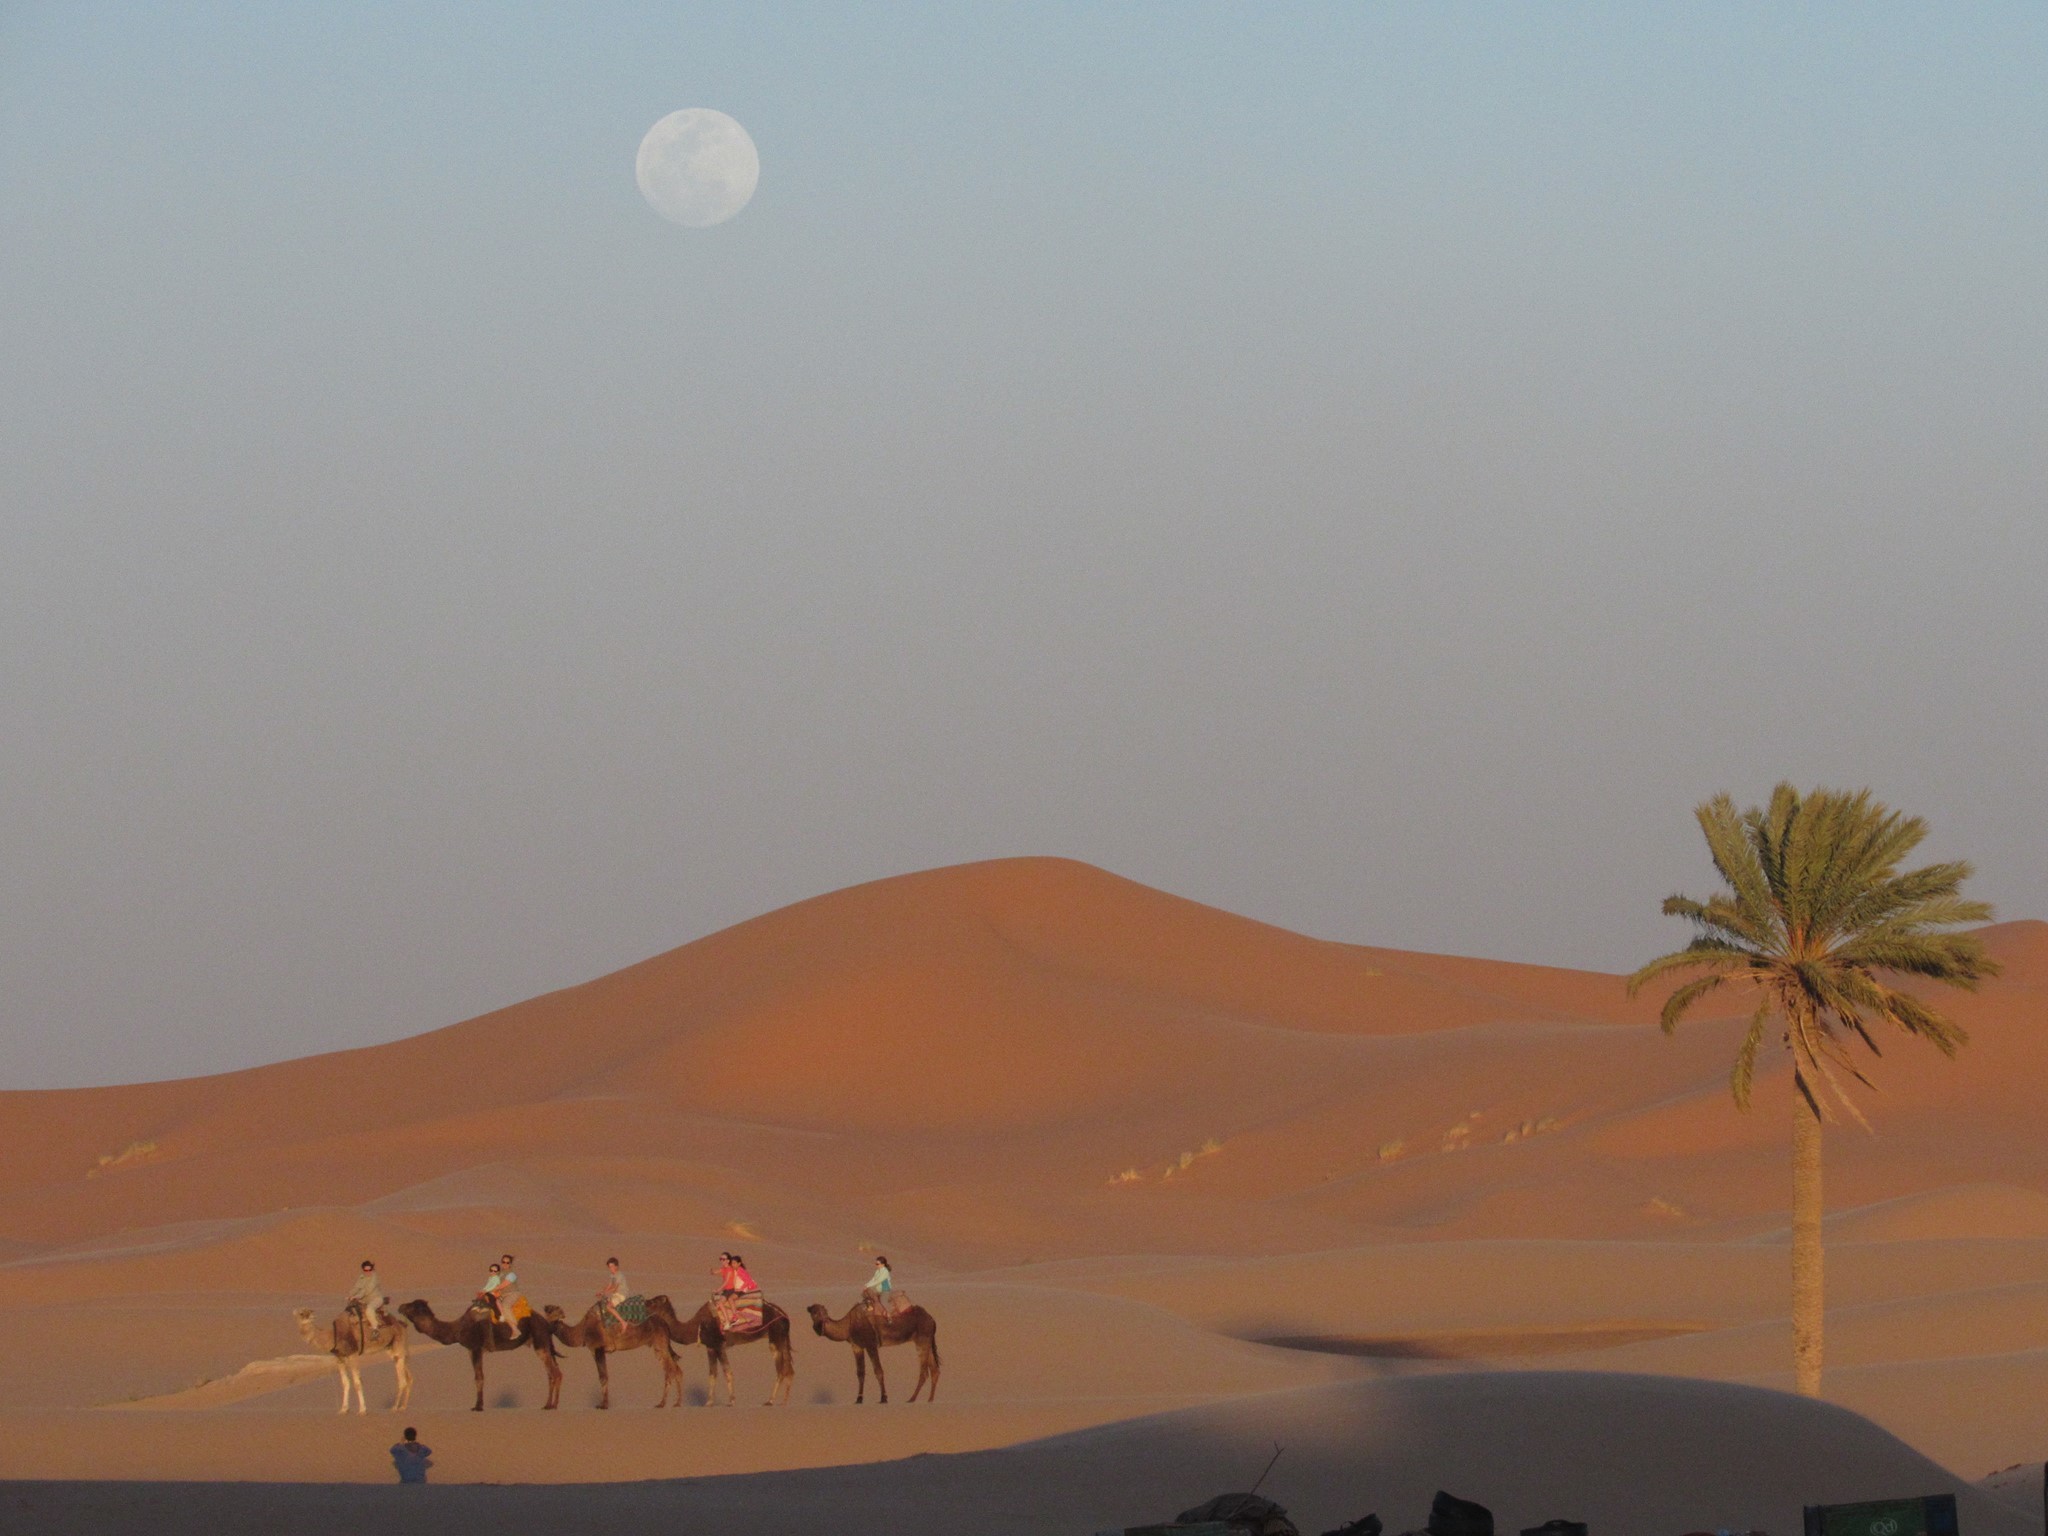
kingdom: Plantae
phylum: Tracheophyta
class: Liliopsida
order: Arecales
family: Arecaceae
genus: Phoenix
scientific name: Phoenix dactylifera
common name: Date palm
